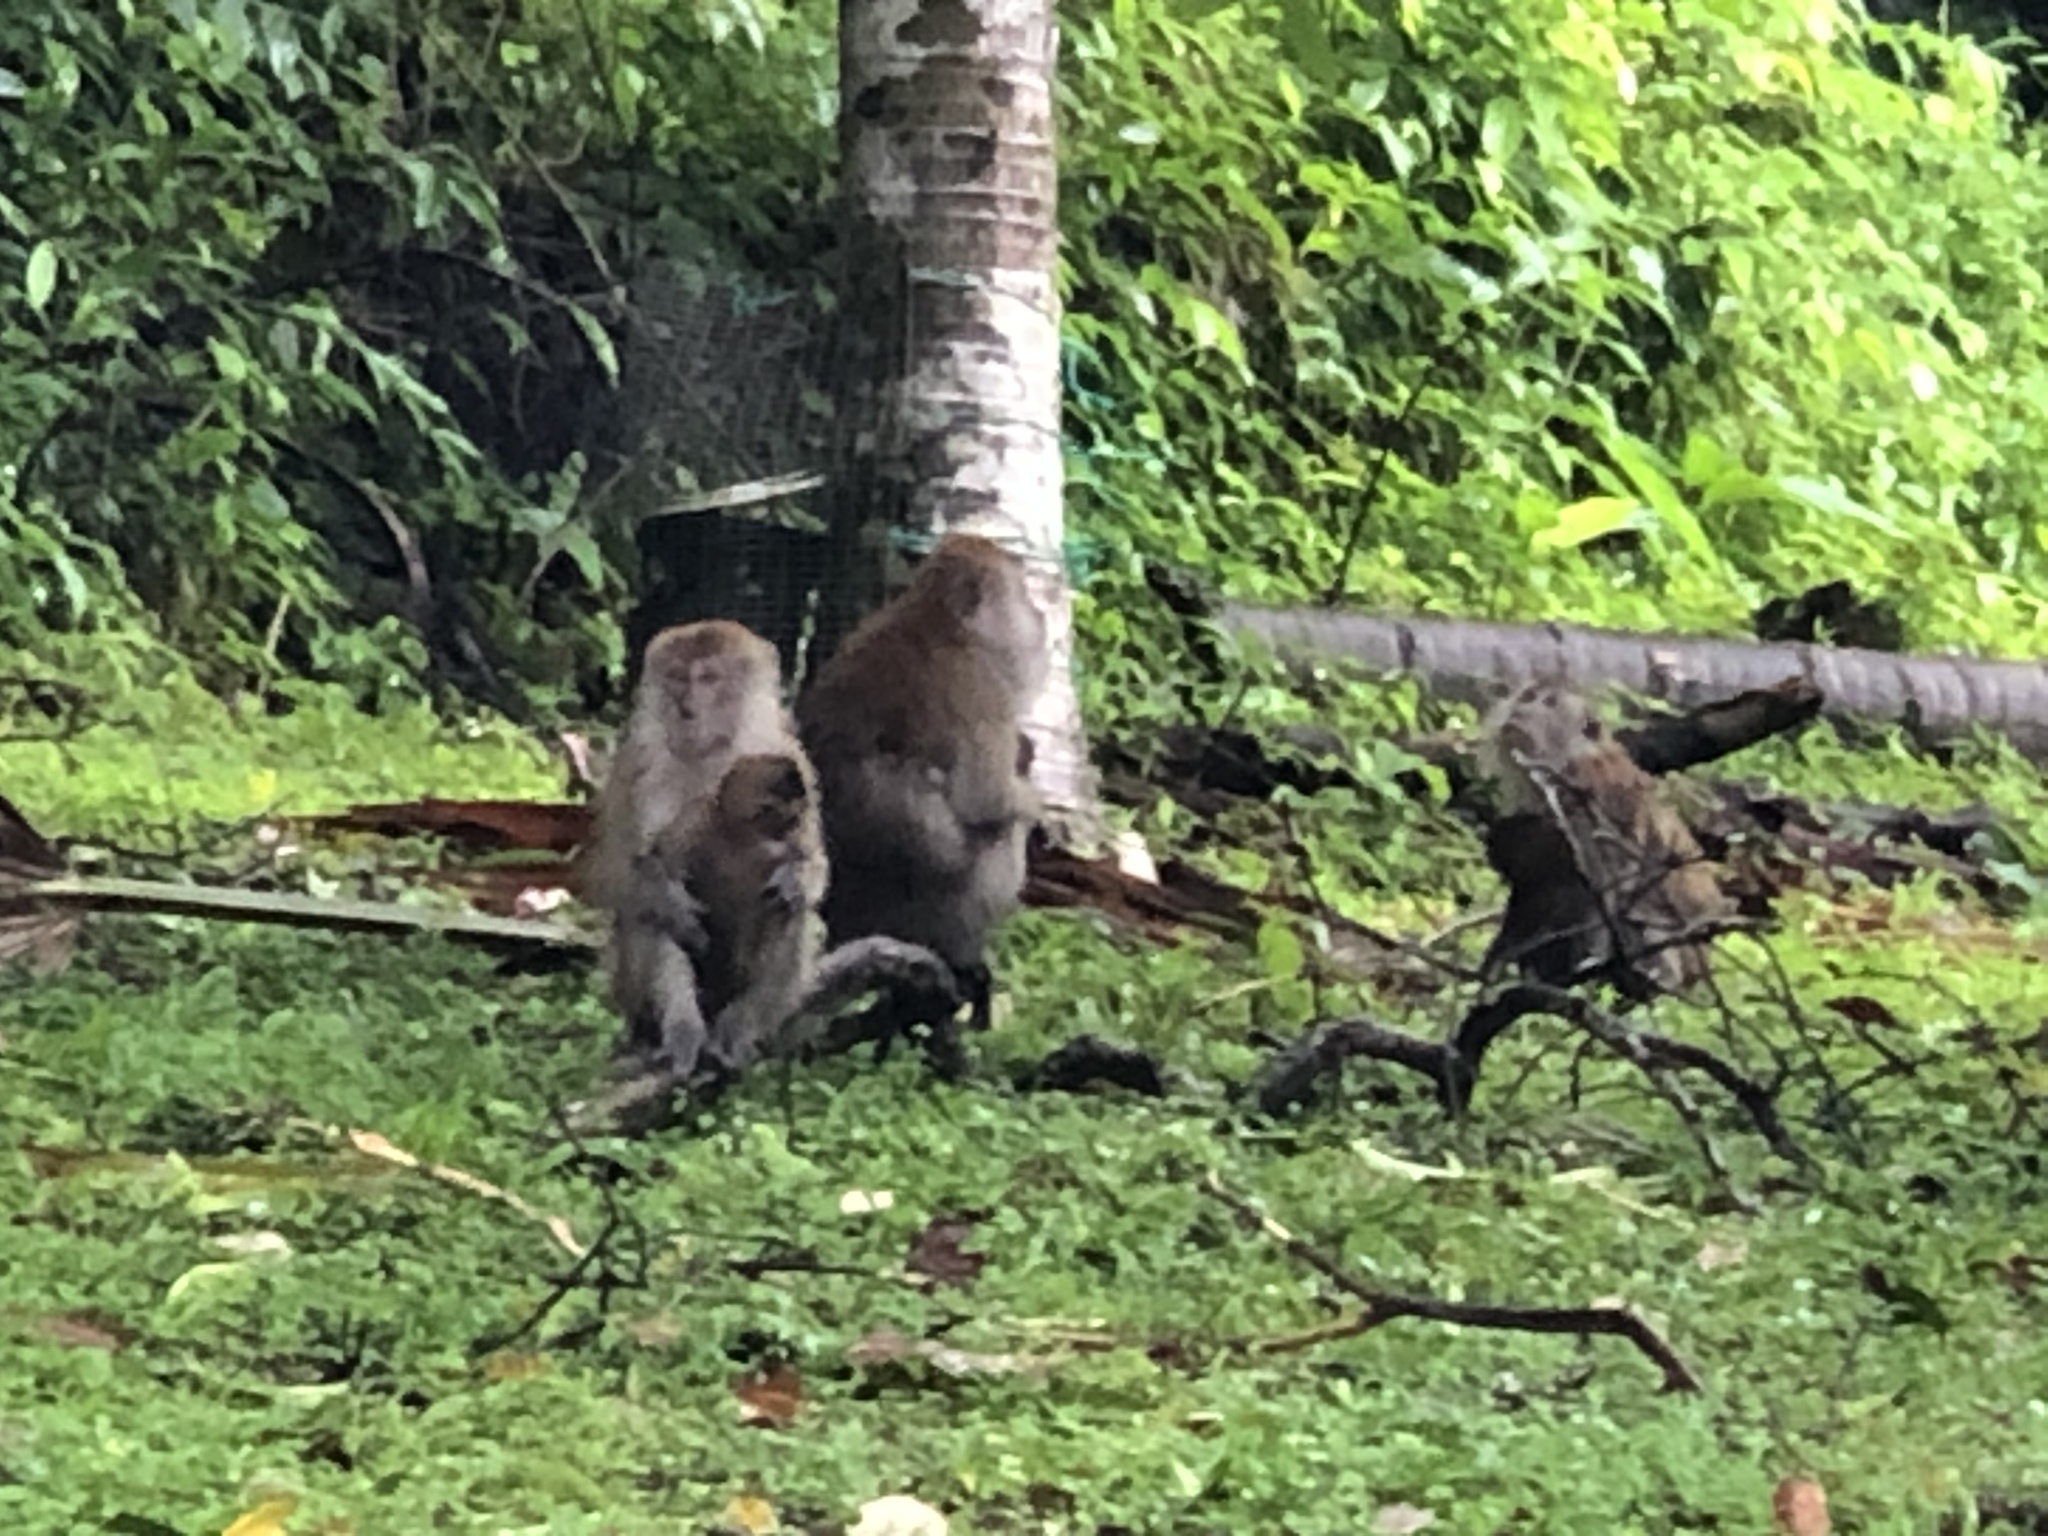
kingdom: Animalia
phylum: Chordata
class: Mammalia
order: Primates
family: Cercopithecidae
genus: Macaca
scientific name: Macaca fascicularis
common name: Crab-eating macaque
